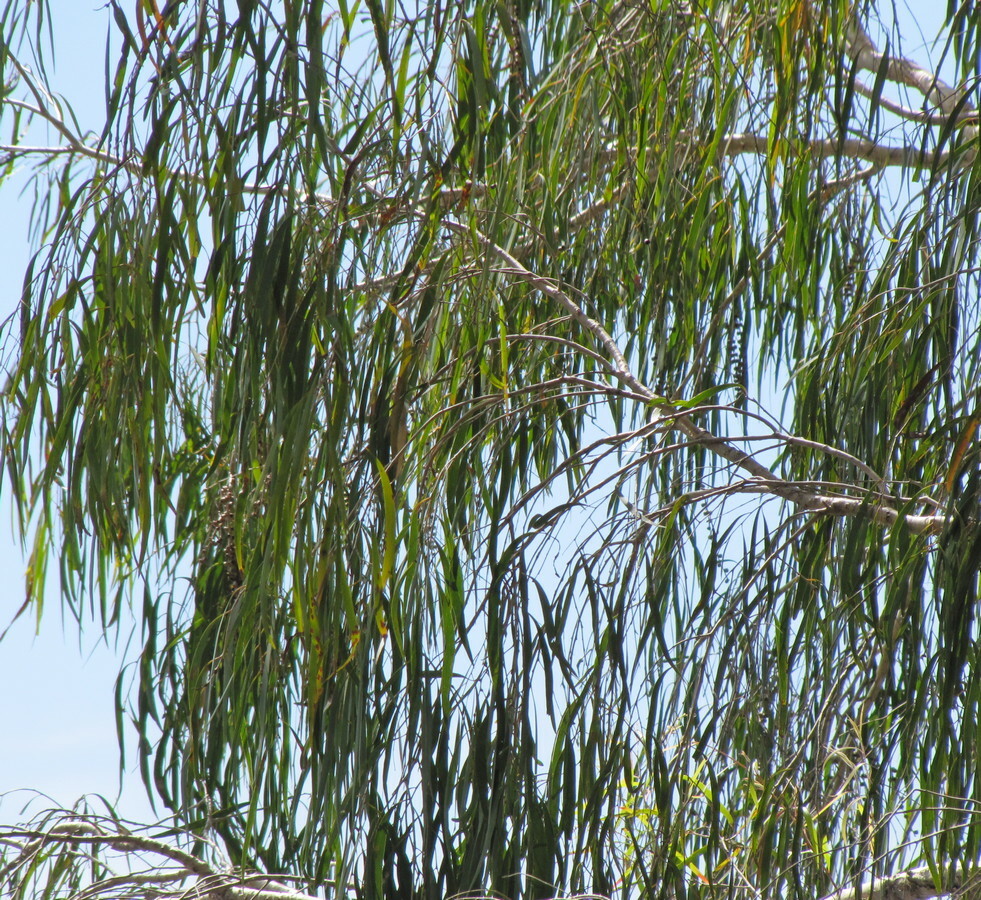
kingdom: Plantae
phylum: Tracheophyta
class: Magnoliopsida
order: Myrtales
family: Myrtaceae
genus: Melaleuca
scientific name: Melaleuca leucadendra
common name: Weeping paperbark
